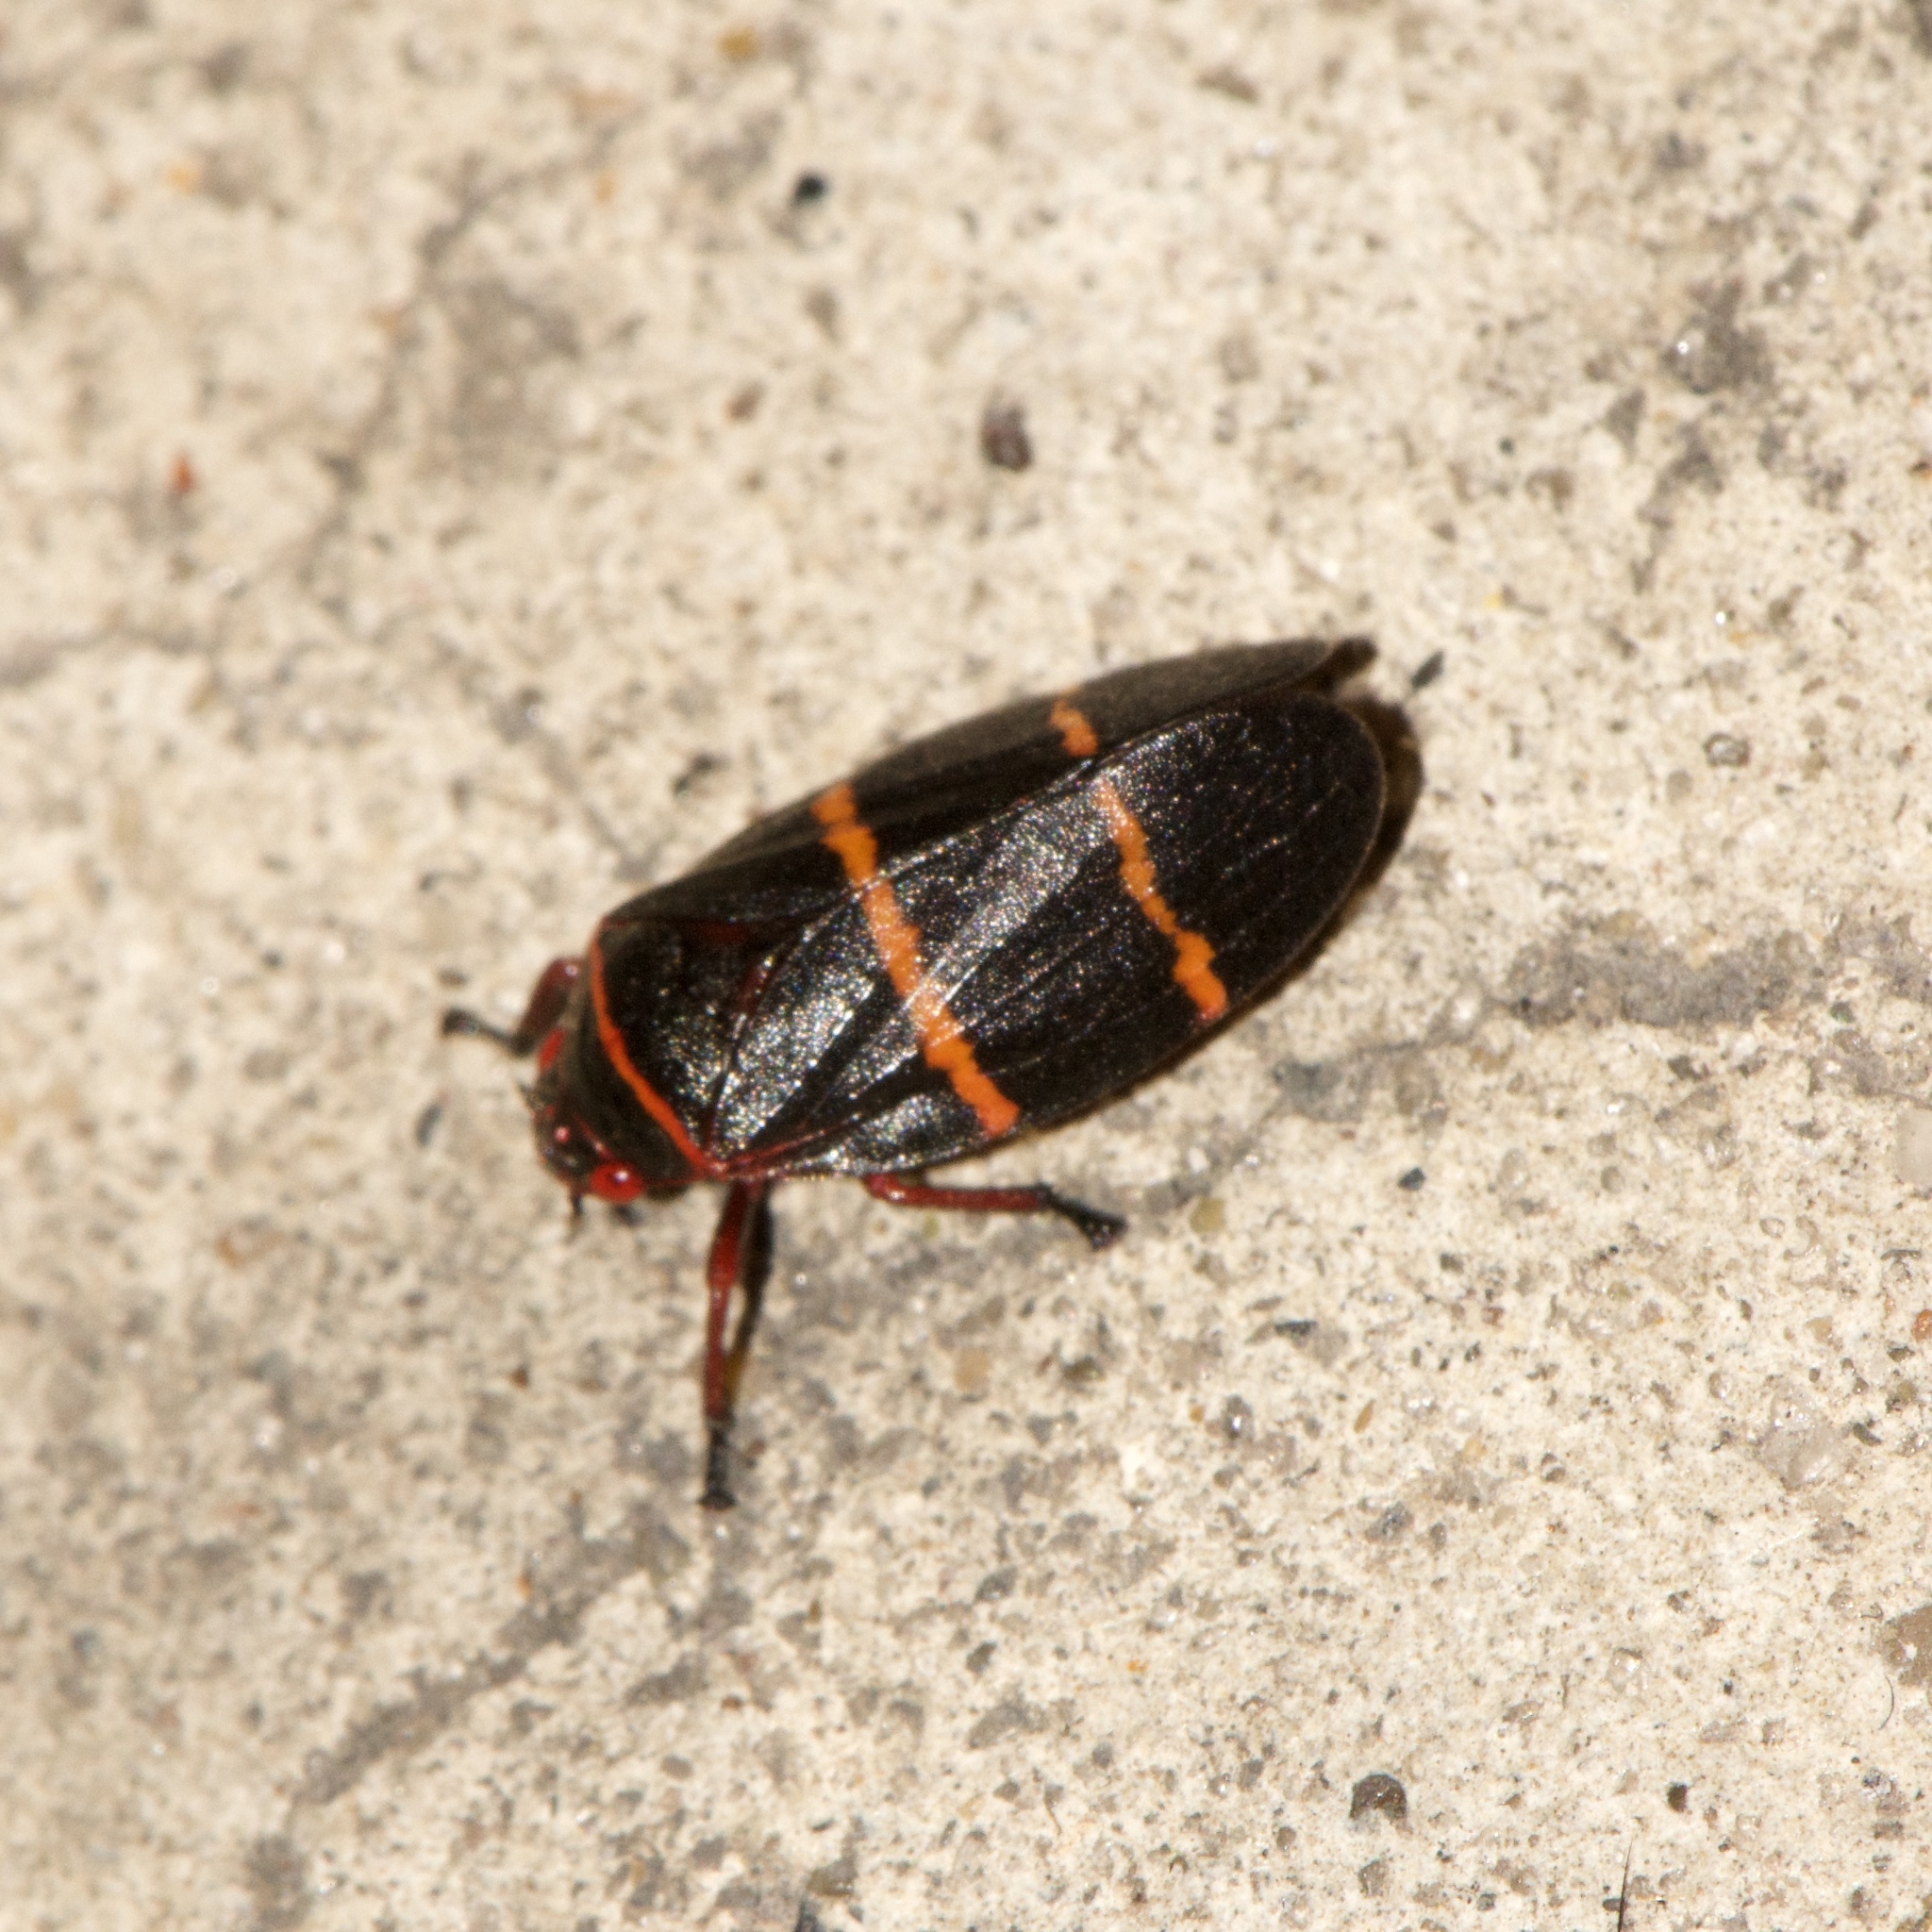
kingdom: Animalia
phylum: Arthropoda
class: Insecta
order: Hemiptera
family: Cercopidae
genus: Prosapia
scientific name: Prosapia bicincta
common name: Twolined spittlebug
